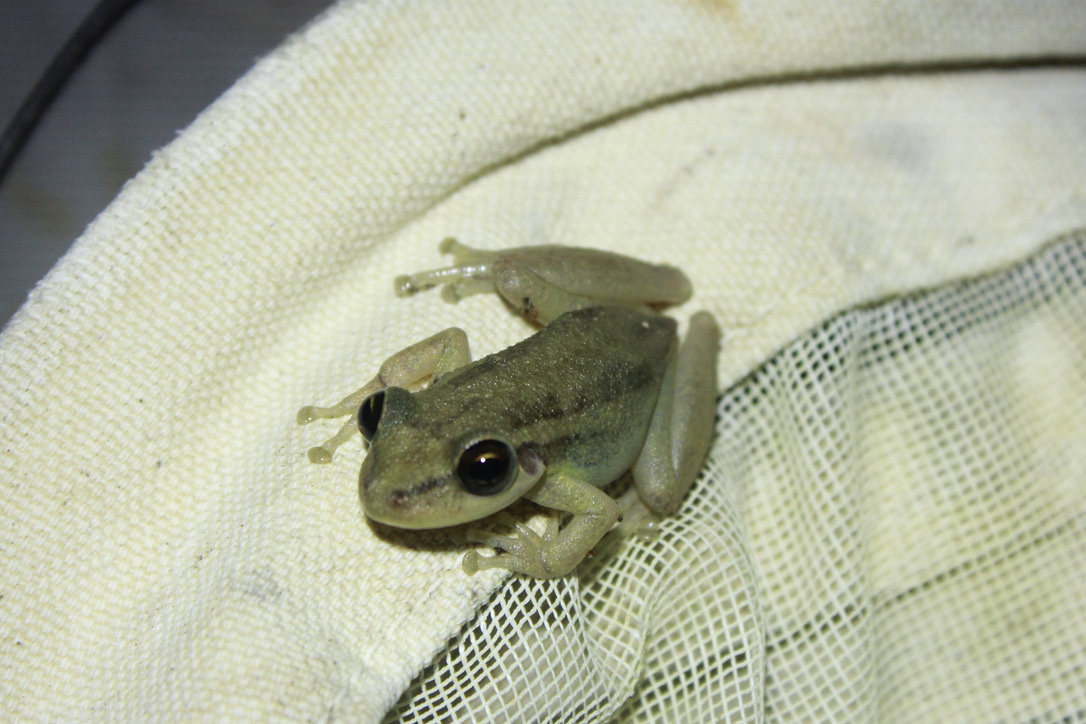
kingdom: Animalia
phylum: Chordata
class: Amphibia
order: Anura
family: Hylidae
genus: Scinax
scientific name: Scinax ruber
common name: Red snouted treefrog
